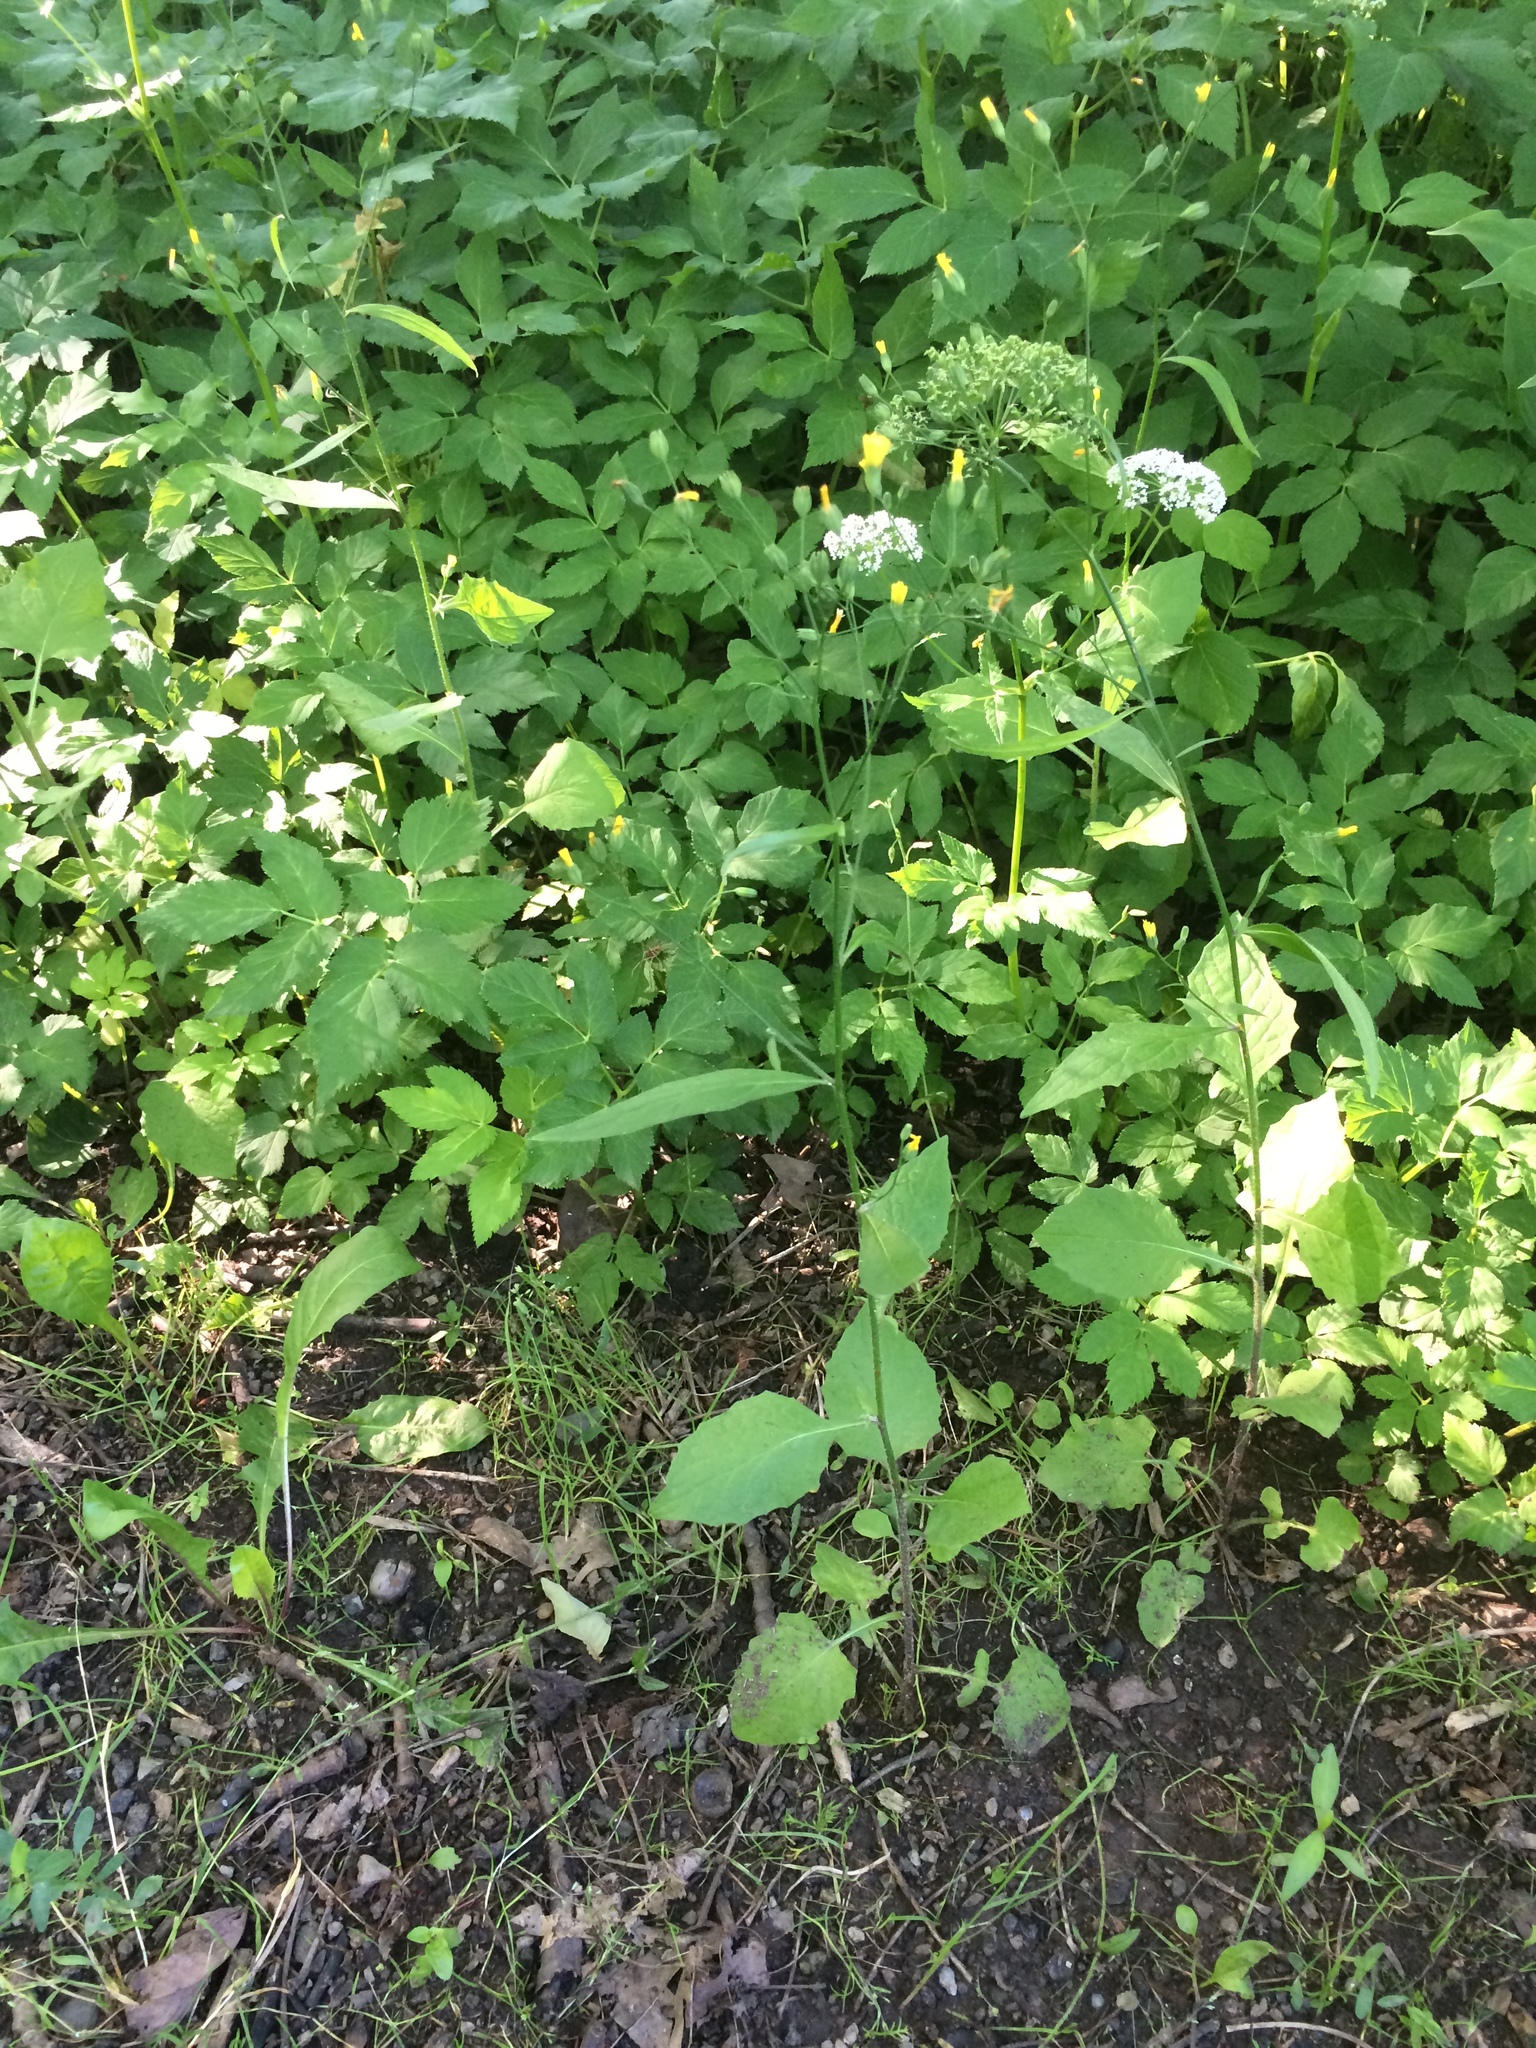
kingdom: Plantae
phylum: Tracheophyta
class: Magnoliopsida
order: Asterales
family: Asteraceae
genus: Lapsana
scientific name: Lapsana communis
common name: Nipplewort
